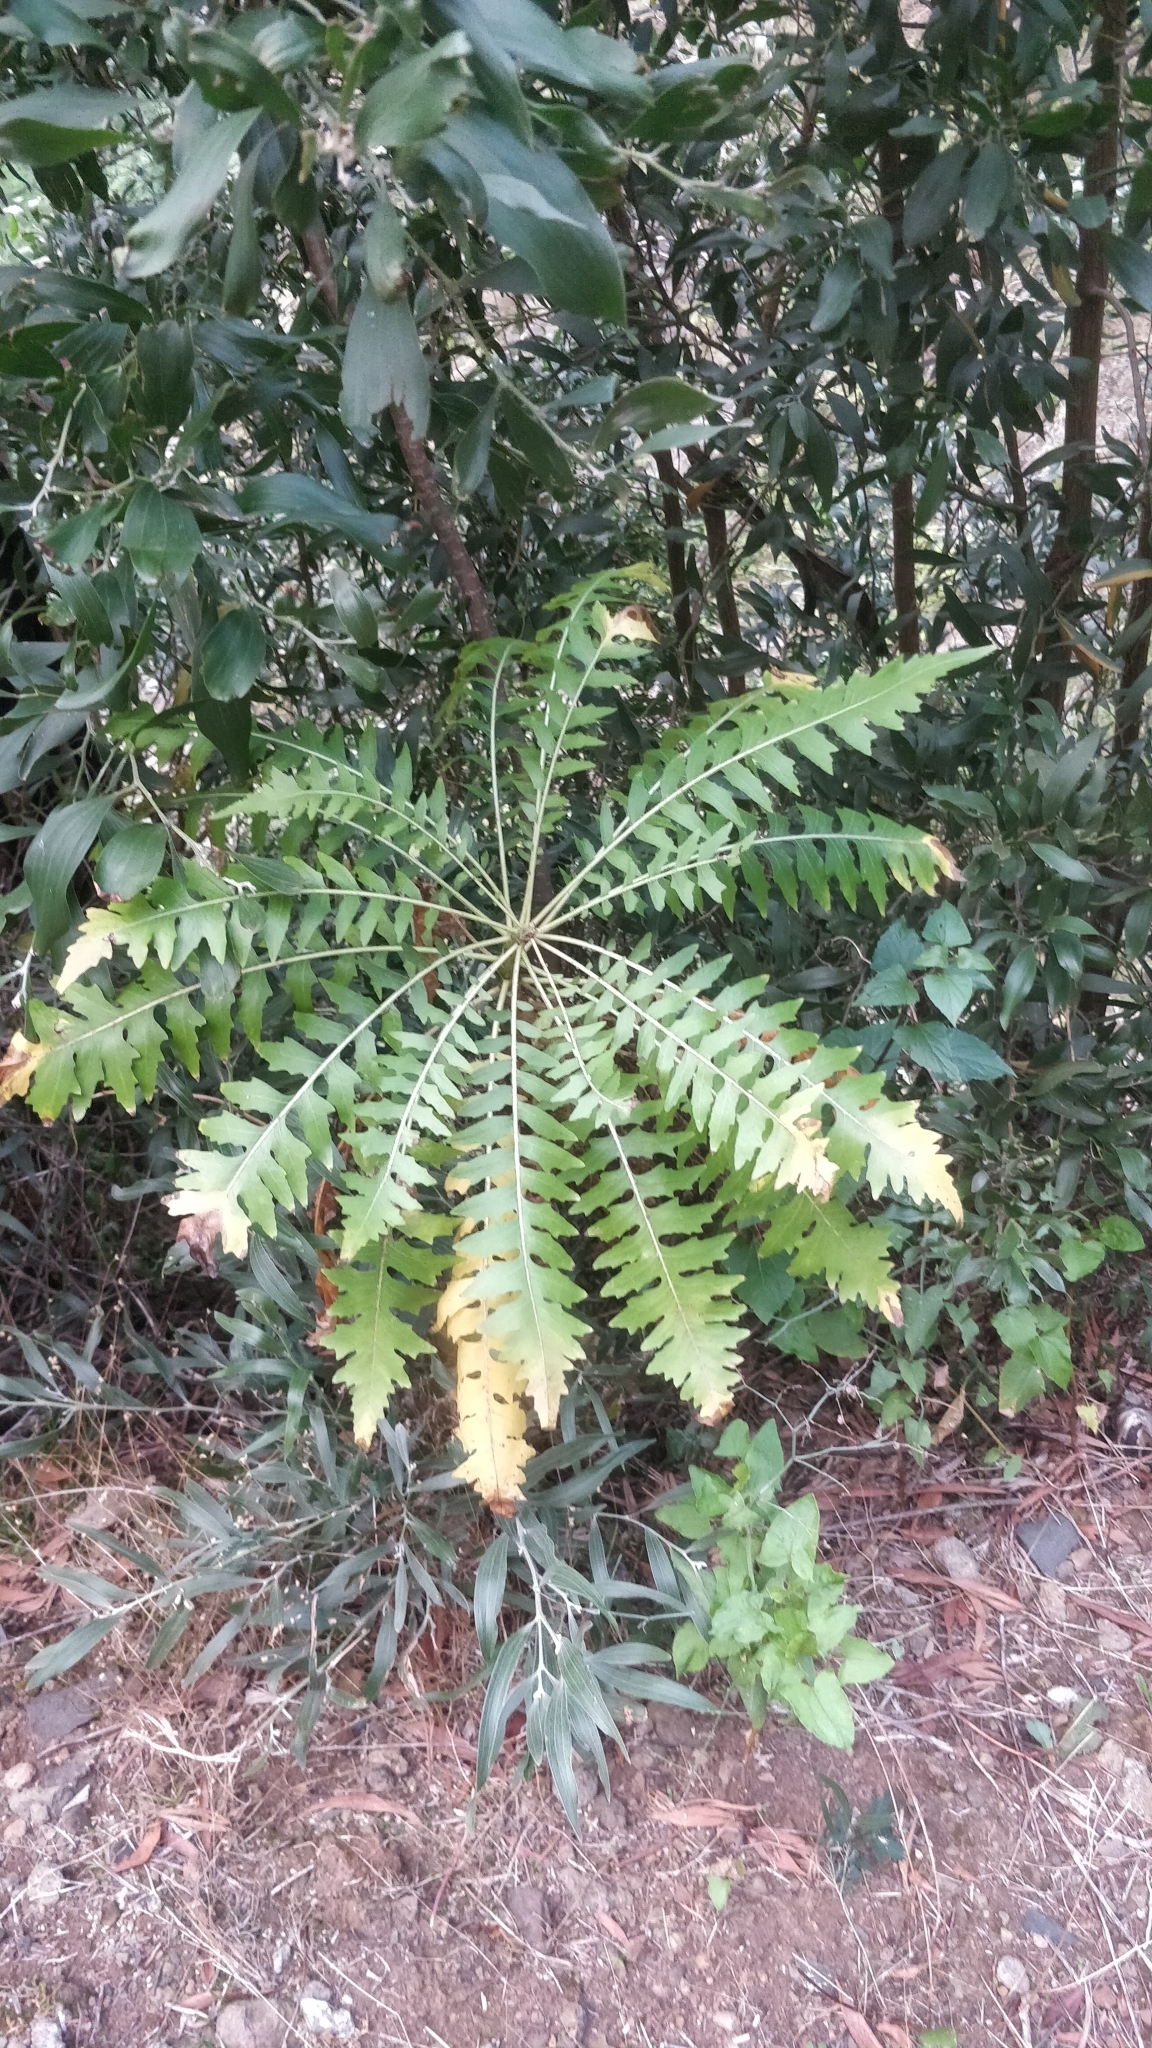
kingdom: Plantae
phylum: Tracheophyta
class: Magnoliopsida
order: Asterales
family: Asteraceae
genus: Sonchus
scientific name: Sonchus pinnatus
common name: Wing-leaved sow-thistle
